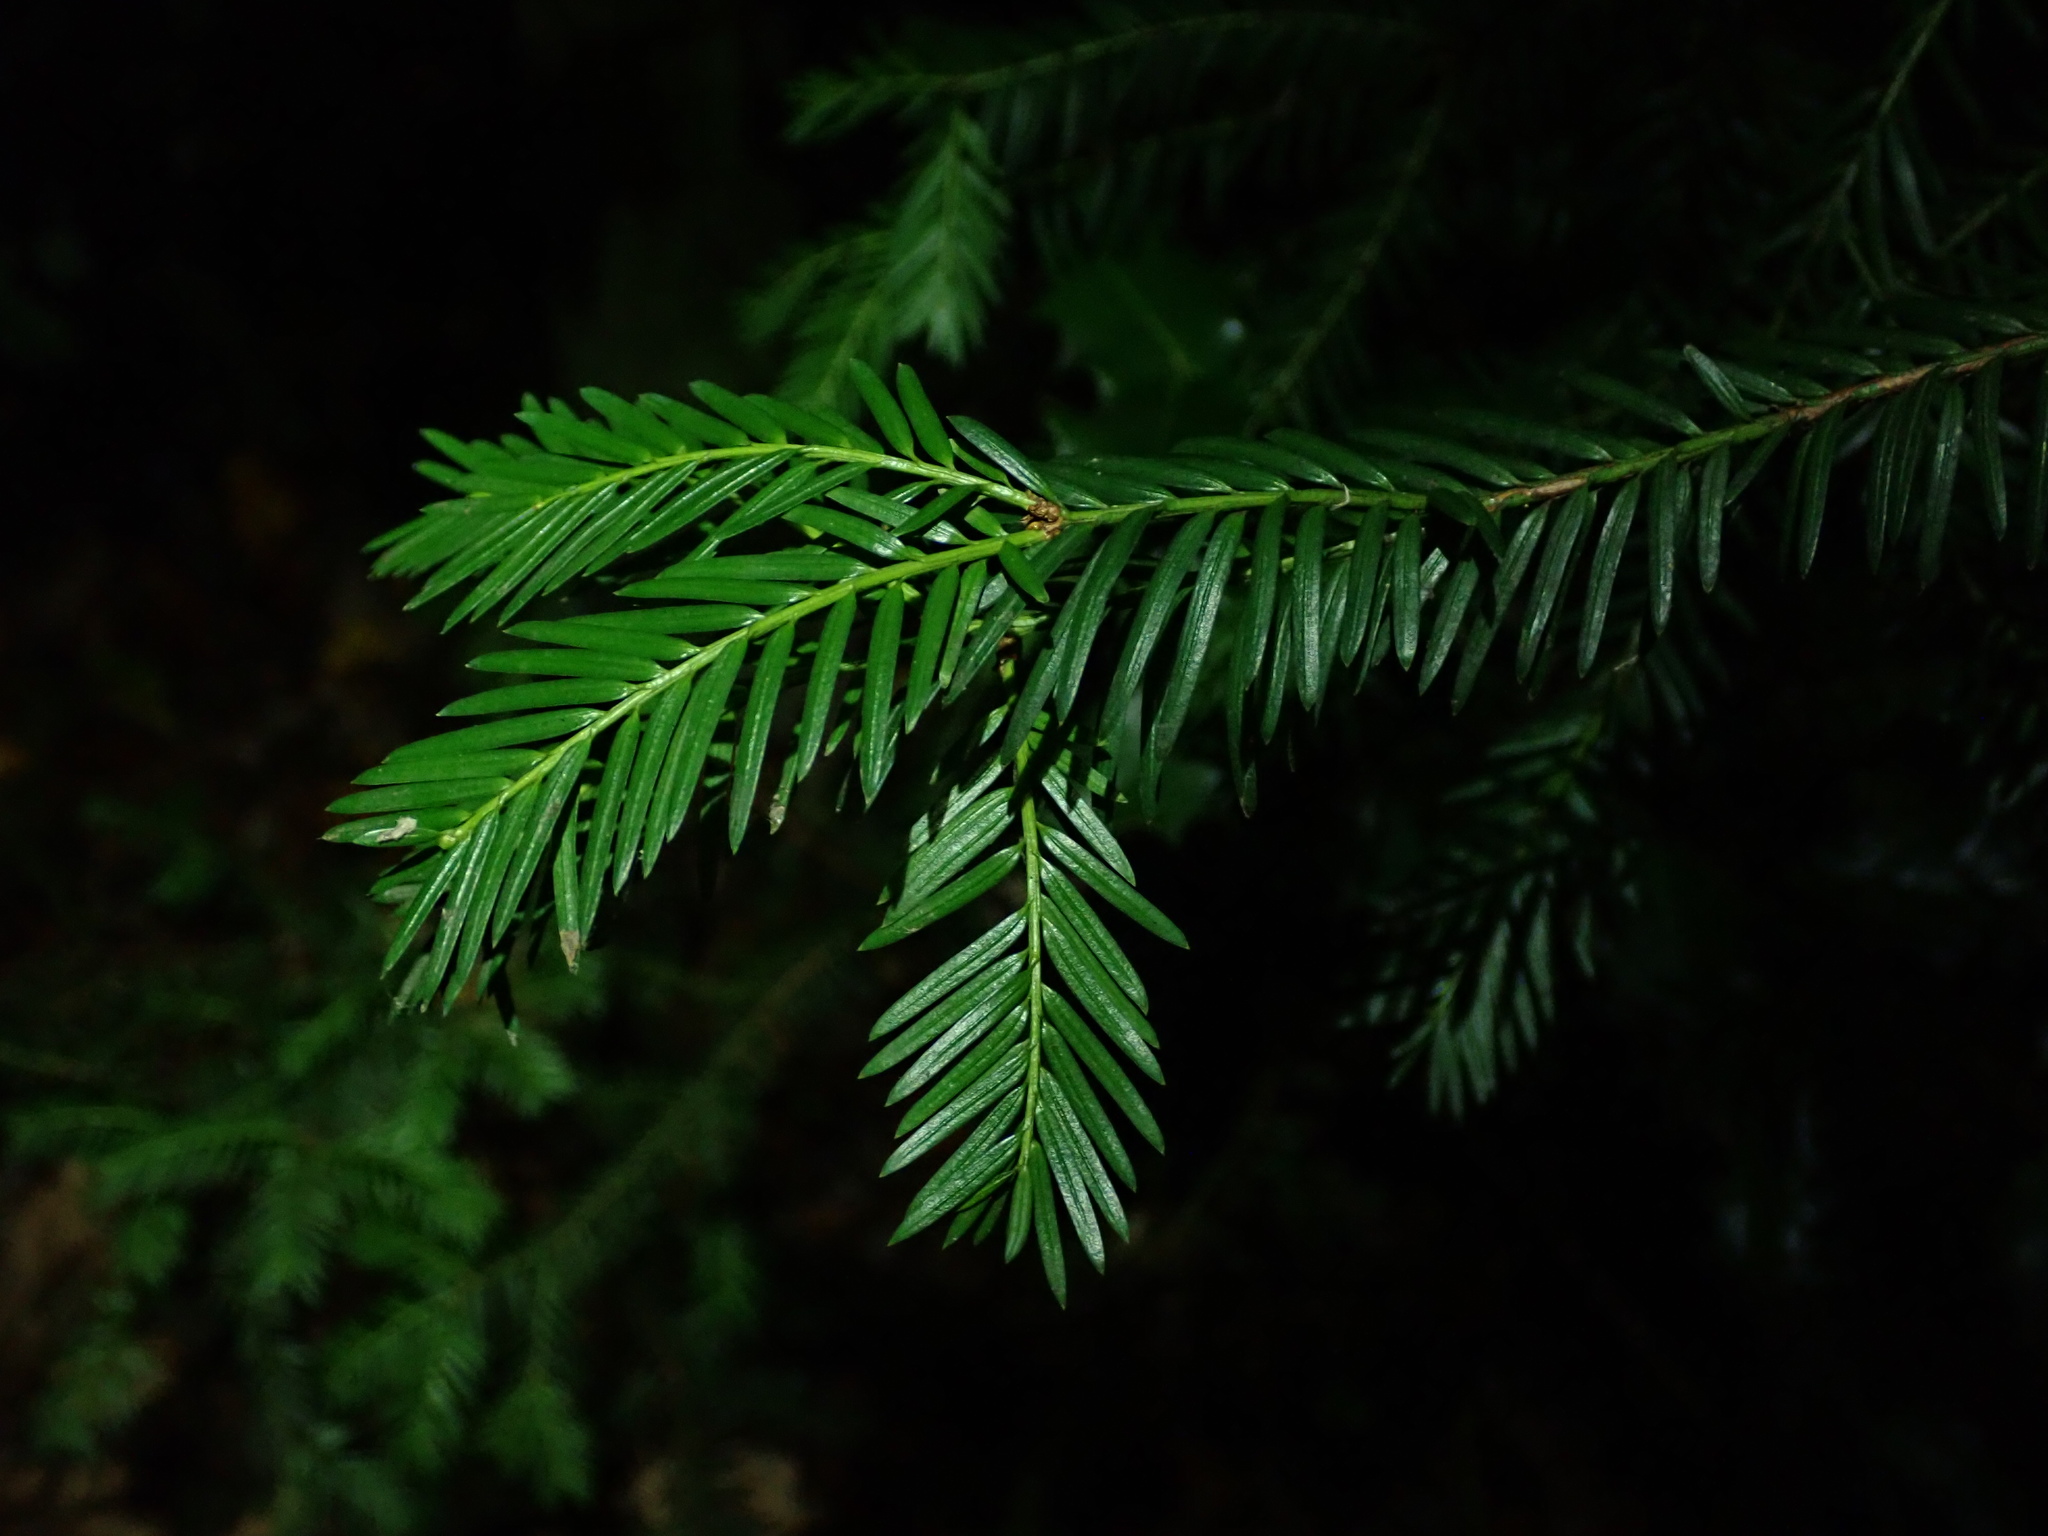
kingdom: Plantae
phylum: Tracheophyta
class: Pinopsida
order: Pinales
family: Taxaceae
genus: Taxus
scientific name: Taxus baccata
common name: Yew
